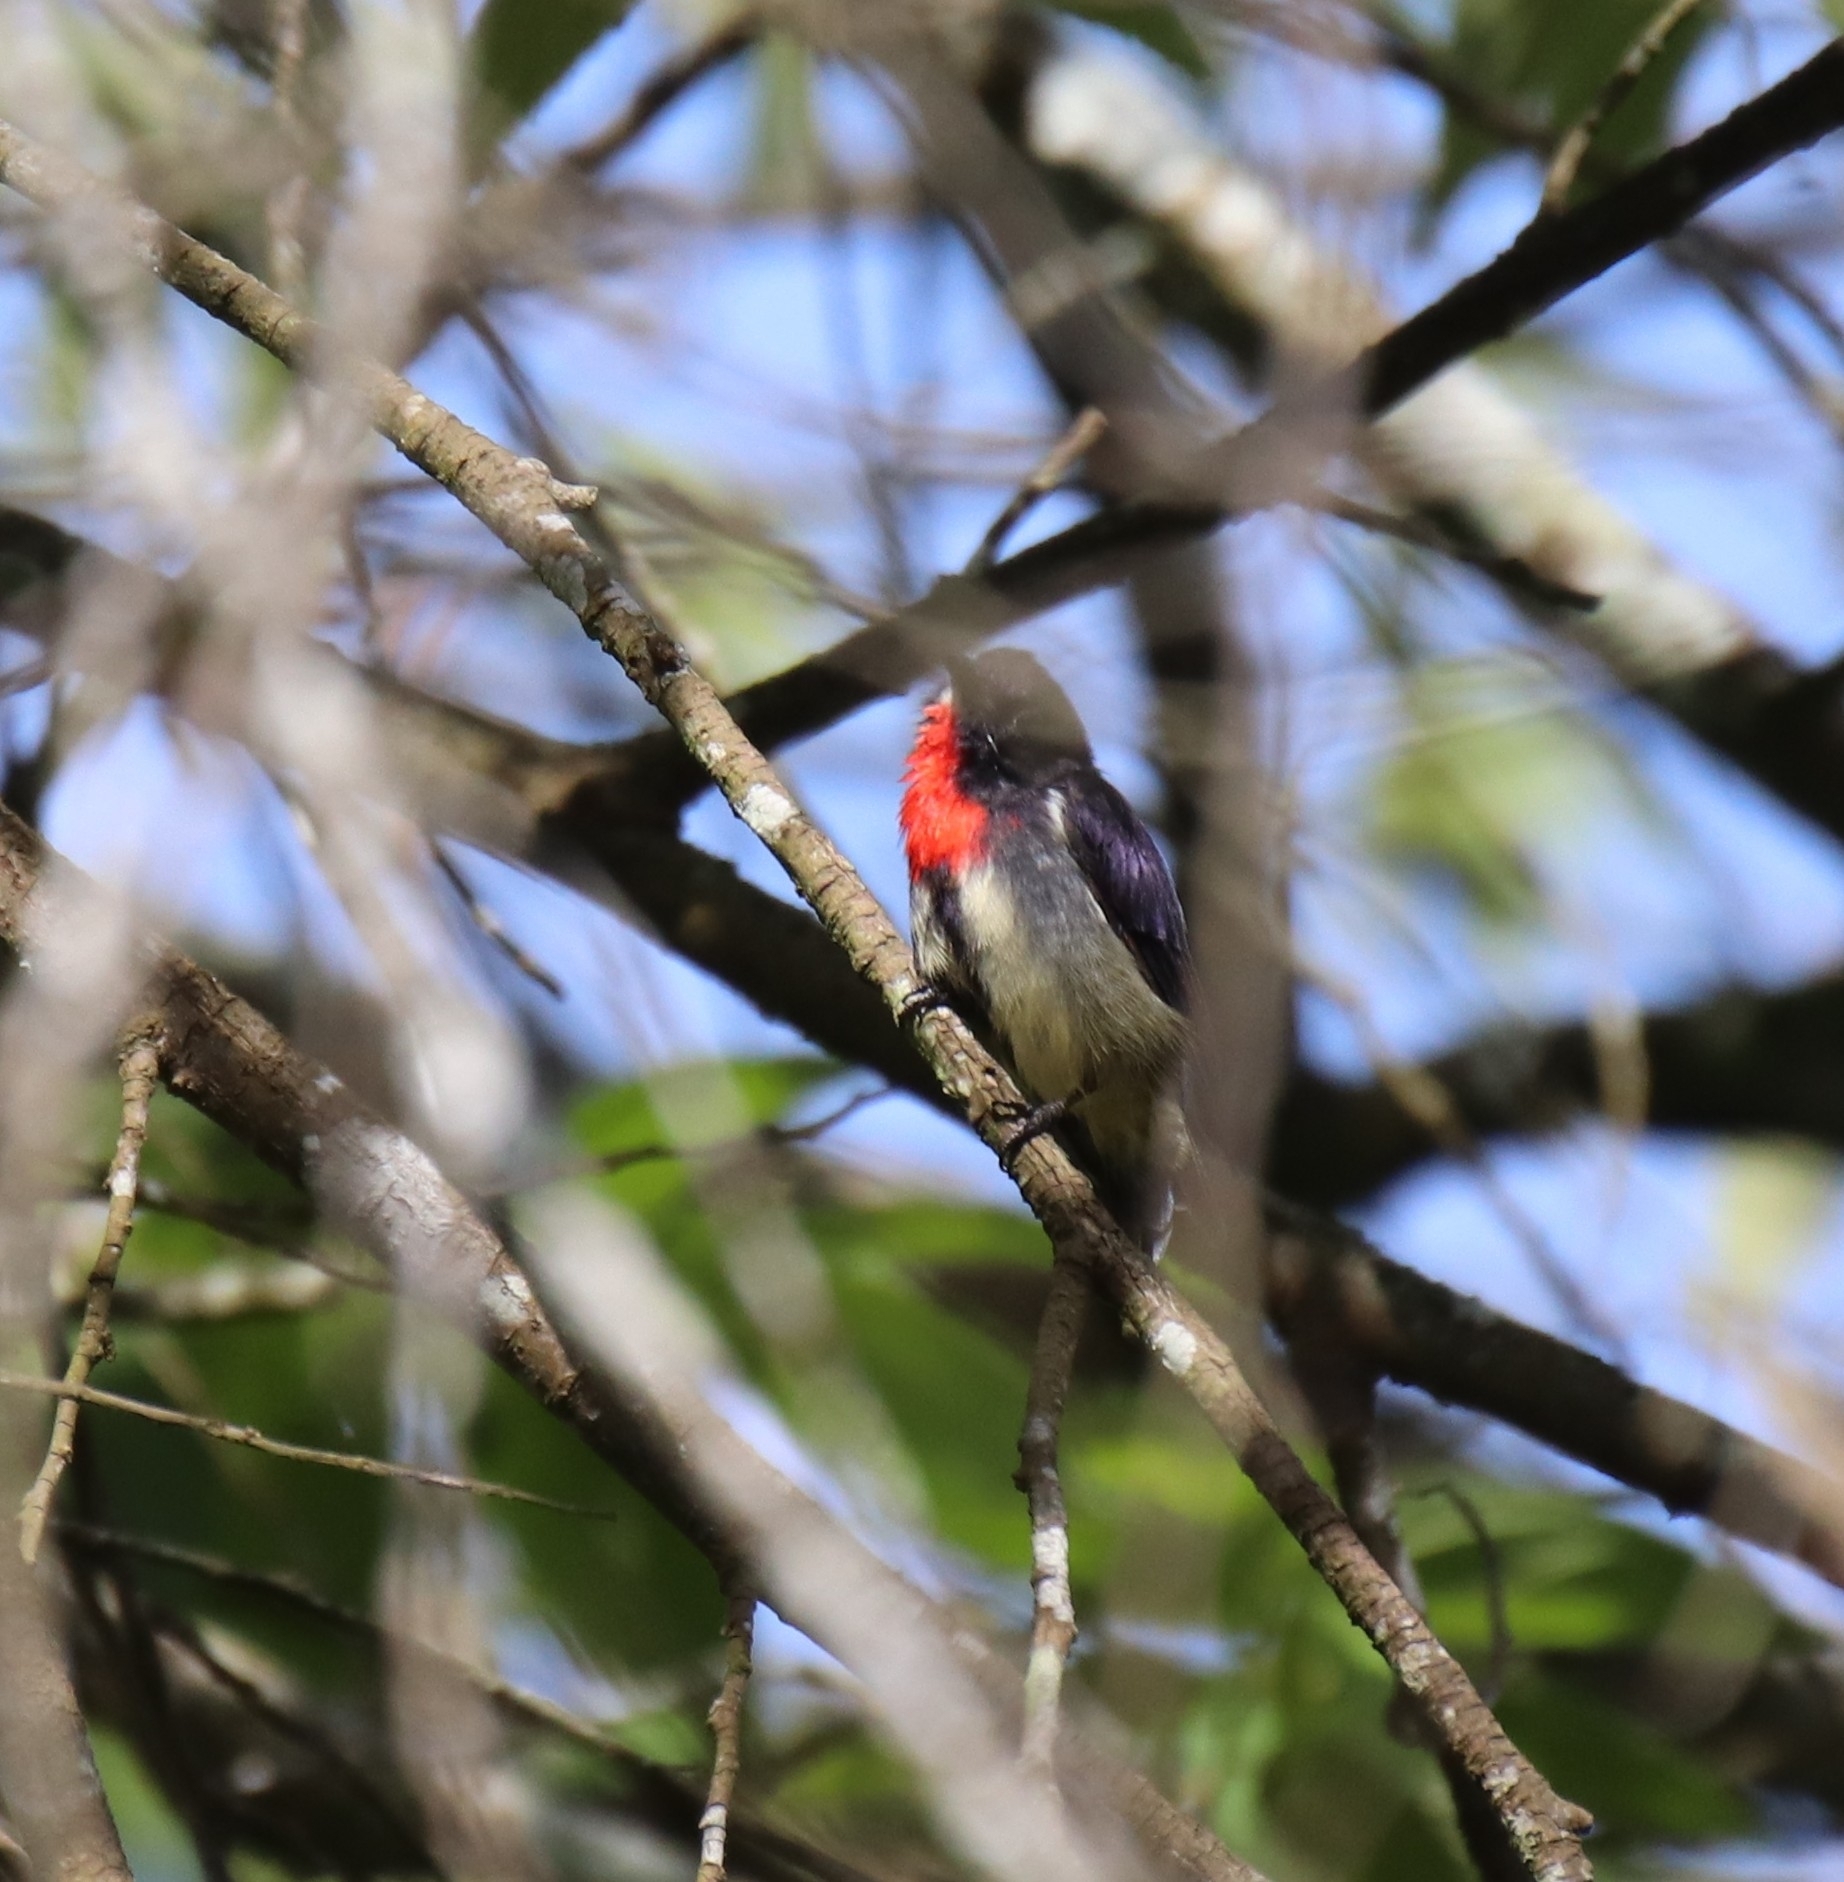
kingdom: Animalia
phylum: Chordata
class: Aves
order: Passeriformes
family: Dicaeidae
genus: Dicaeum
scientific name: Dicaeum celebicum
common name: Grey-sided flowerpecker
